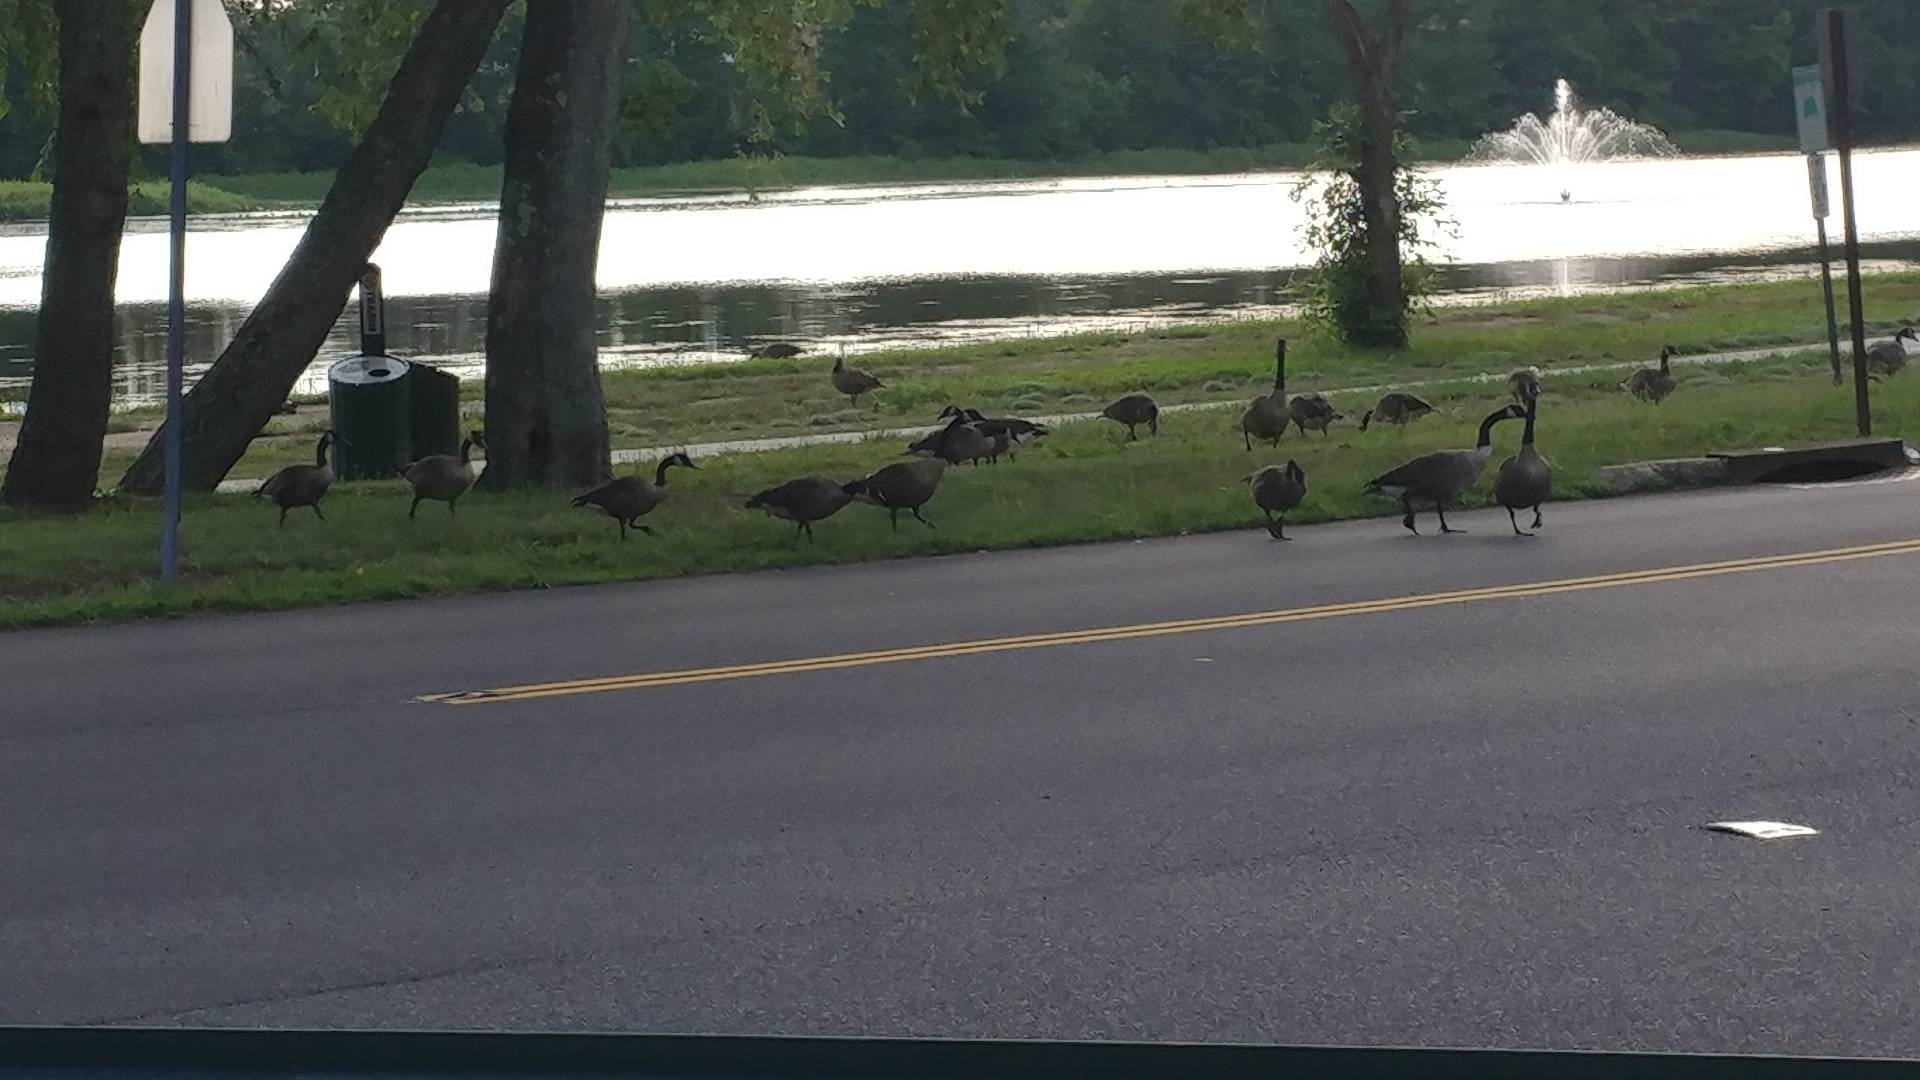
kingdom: Animalia
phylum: Chordata
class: Aves
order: Anseriformes
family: Anatidae
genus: Branta
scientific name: Branta canadensis
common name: Canada goose
